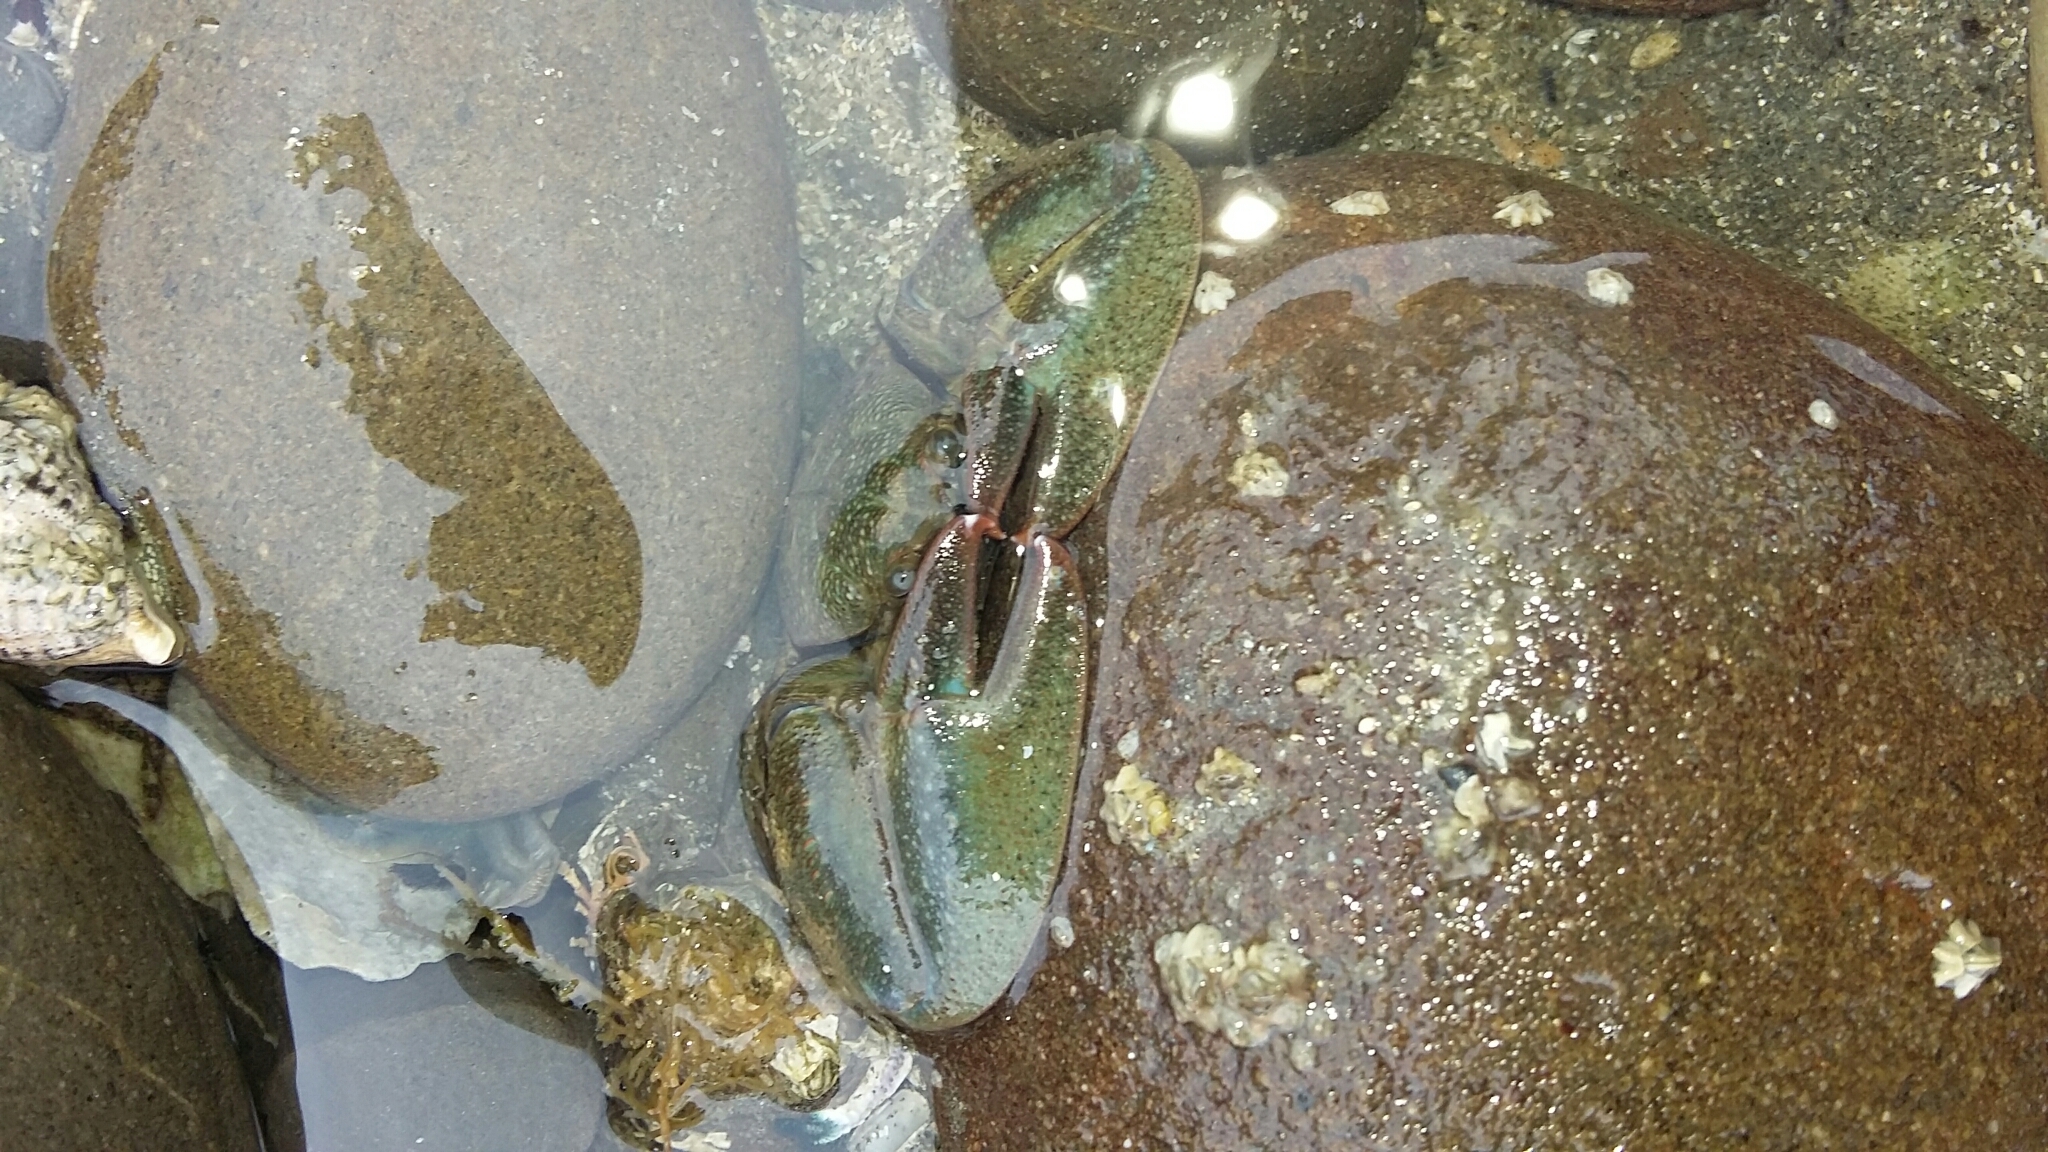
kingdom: Animalia
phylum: Arthropoda
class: Malacostraca
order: Decapoda
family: Porcellanidae
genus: Petrolisthes
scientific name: Petrolisthes elongatus
